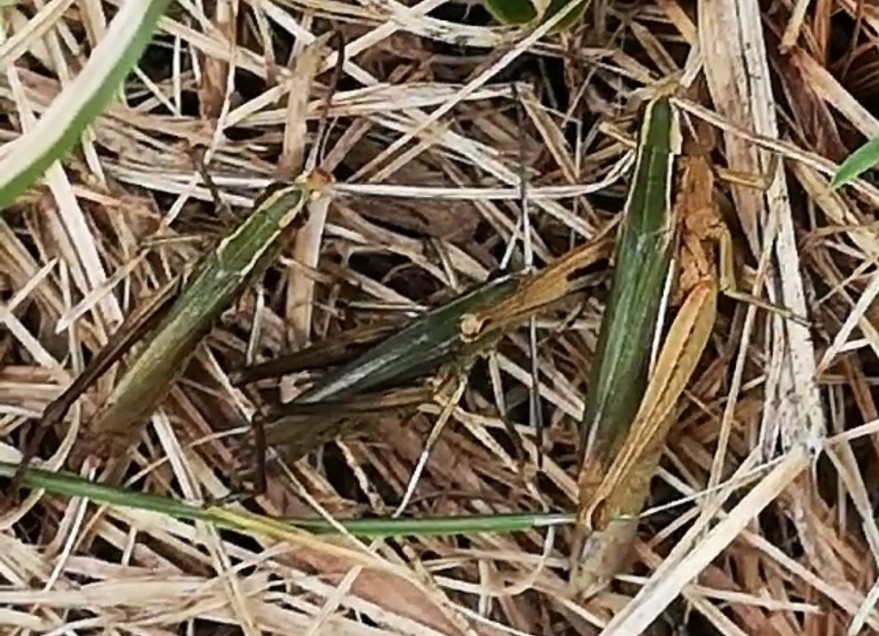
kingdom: Animalia
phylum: Arthropoda
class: Insecta
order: Orthoptera
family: Acrididae
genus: Chorthippus
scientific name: Chorthippus albomarginatus
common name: Lesser marsh grasshopper
